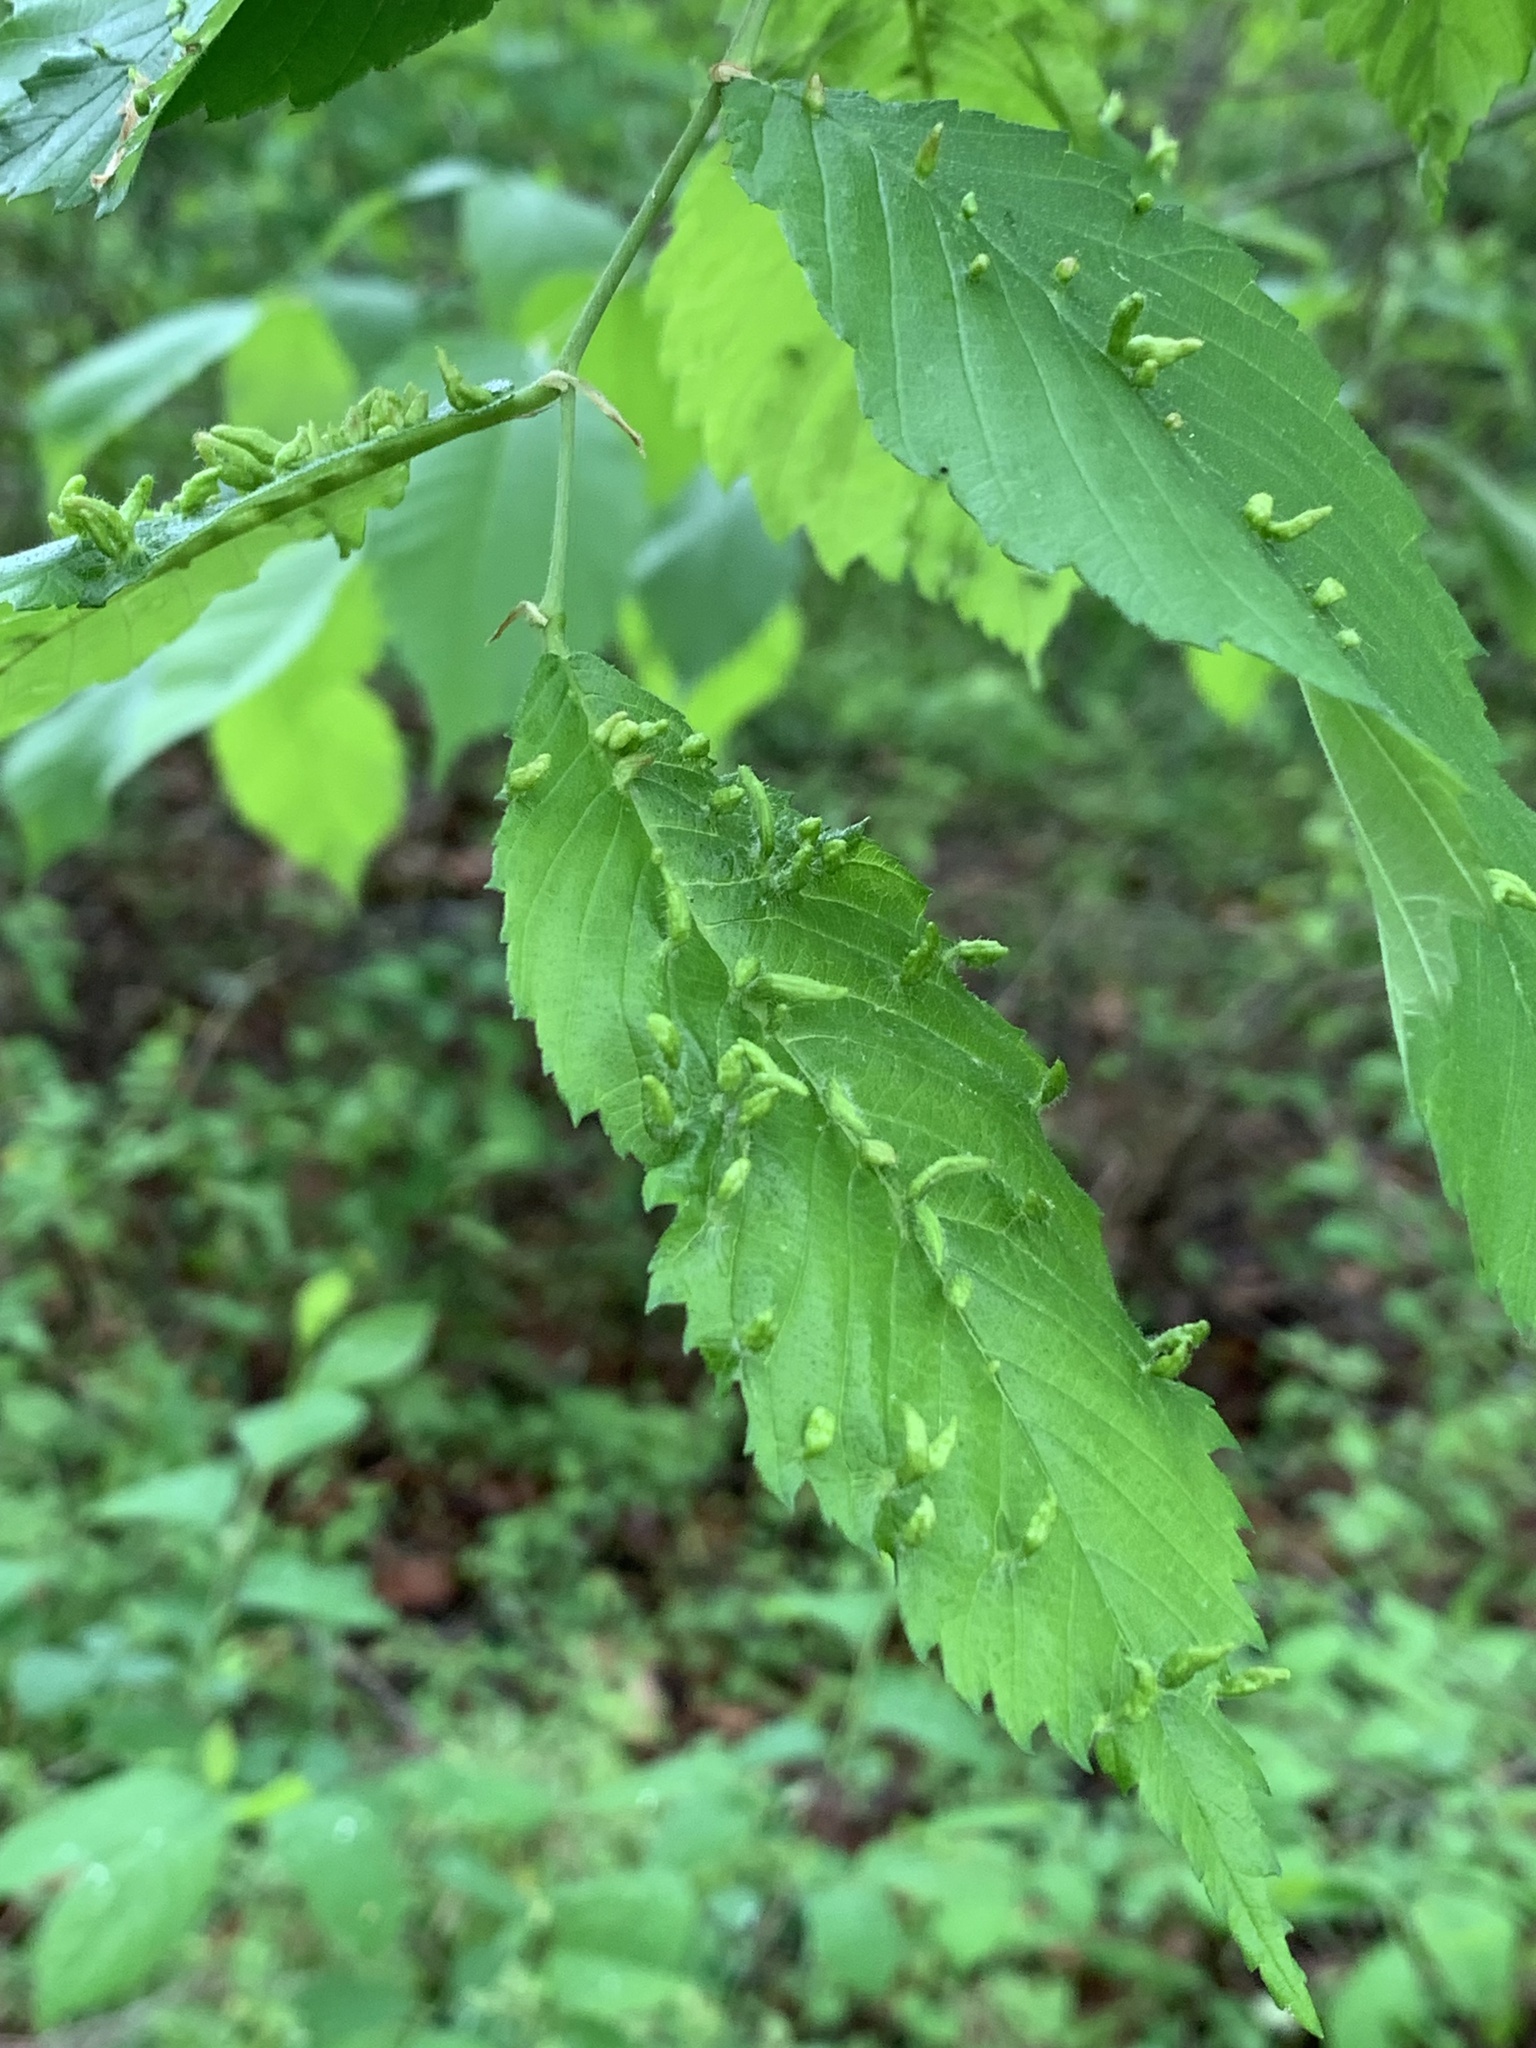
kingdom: Animalia
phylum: Arthropoda
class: Arachnida
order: Trombidiformes
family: Eriophyidae
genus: Aceria
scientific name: Aceria
